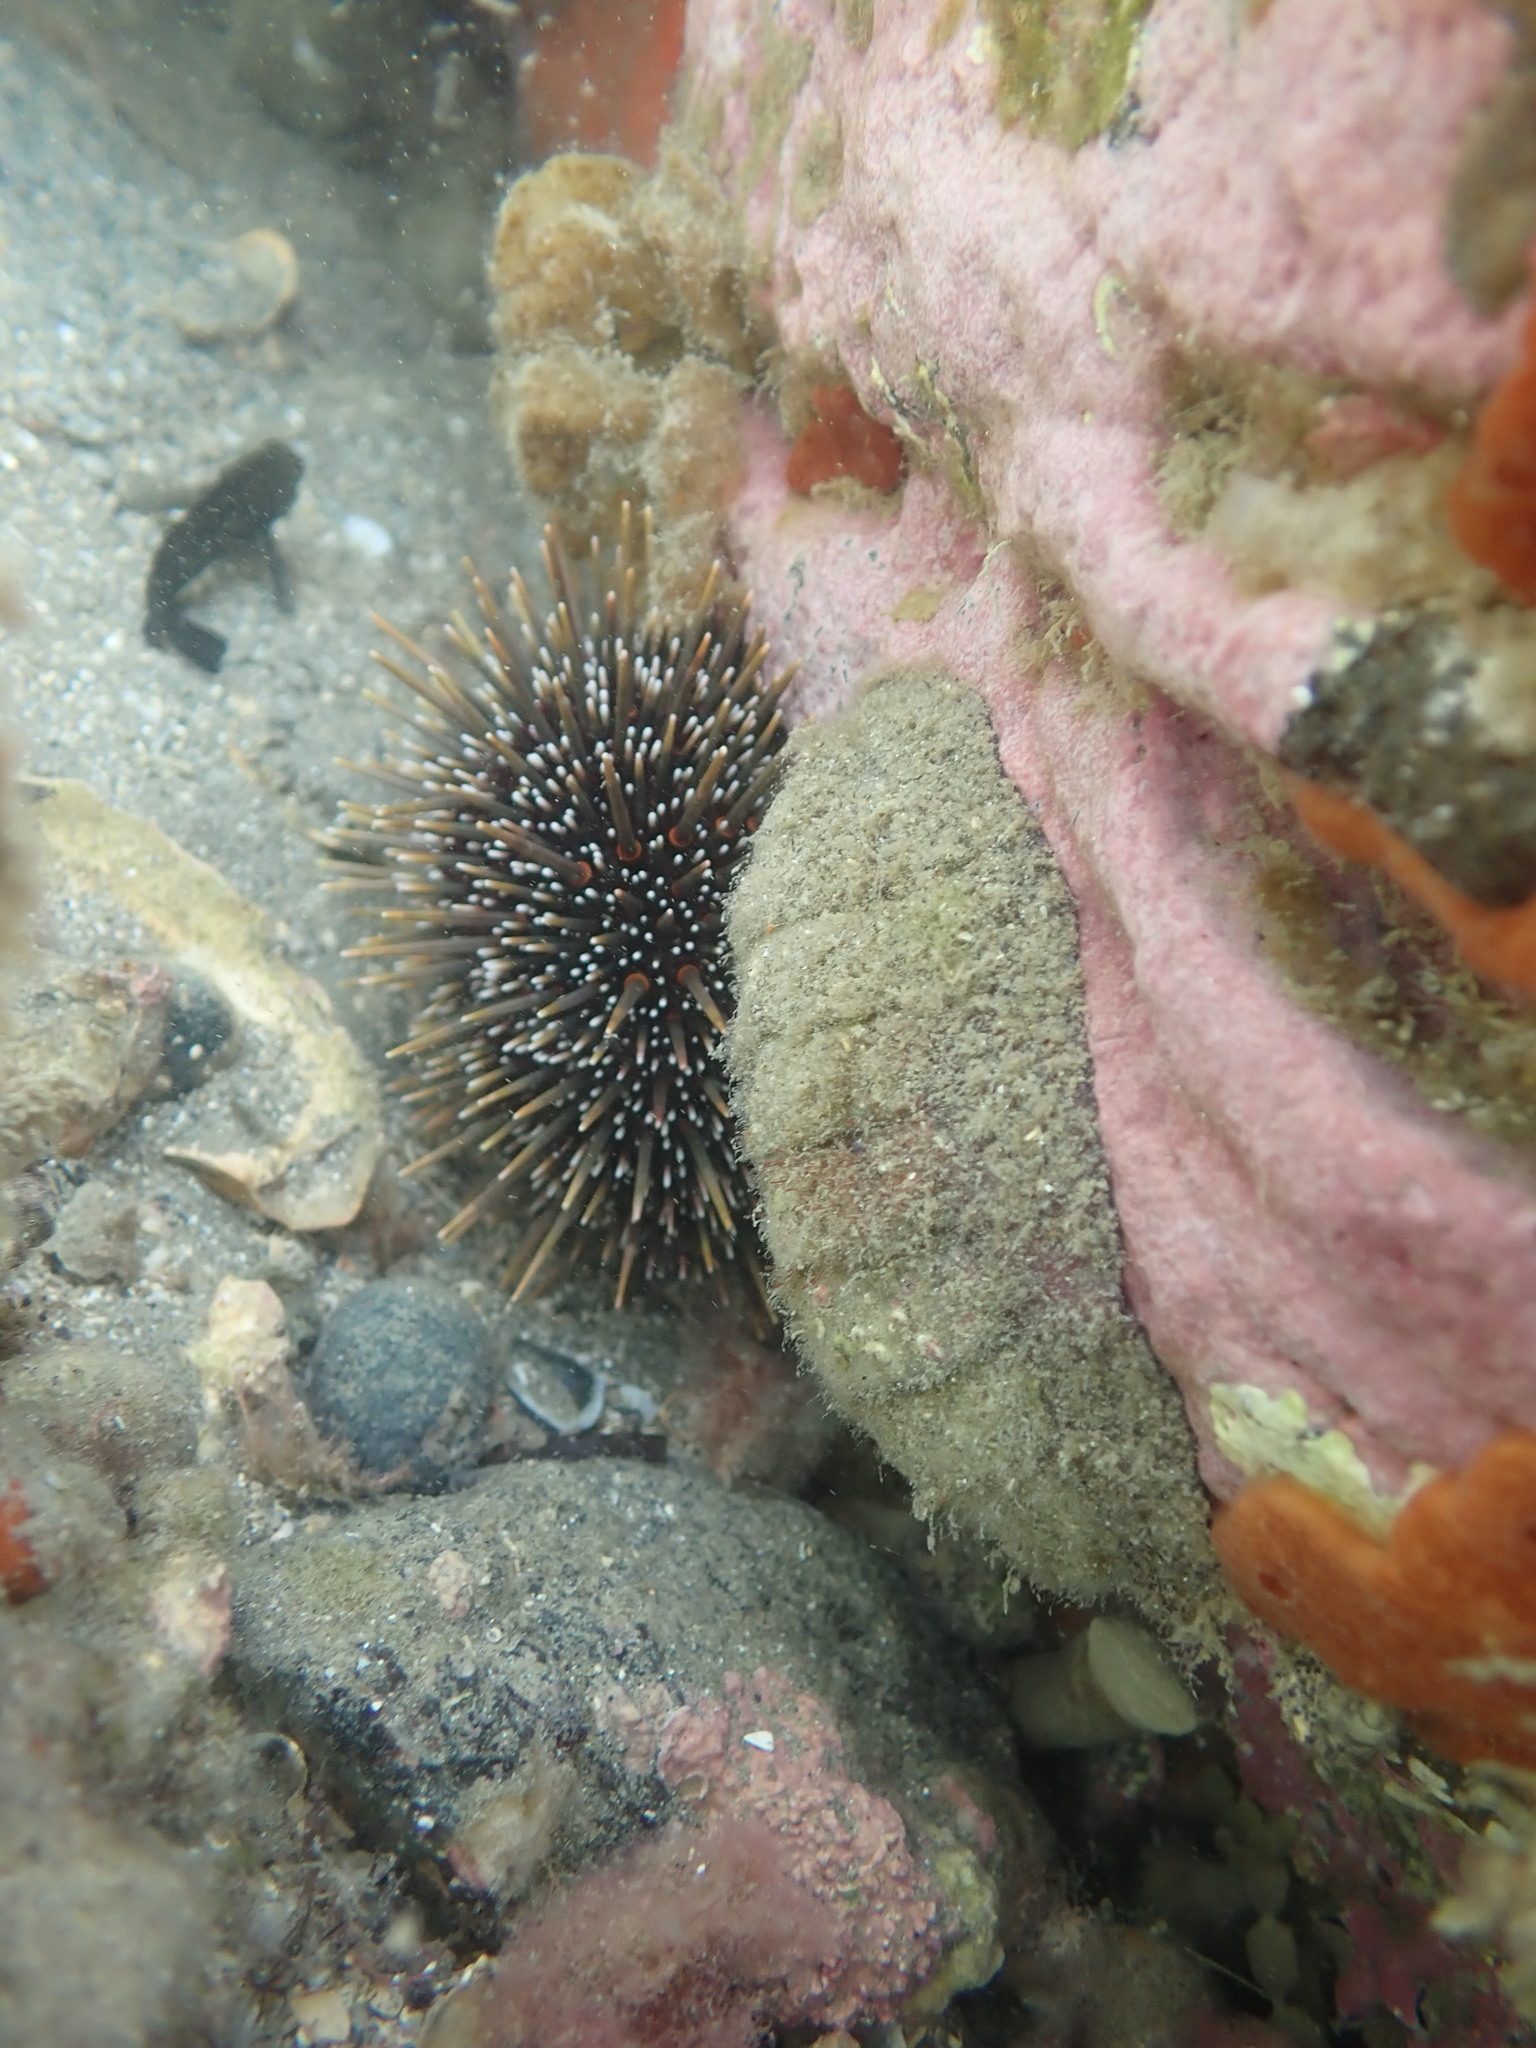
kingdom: Animalia
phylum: Mollusca
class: Polyplacophora
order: Callochitonida
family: Callochitonidae
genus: Eudoxochiton
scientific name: Eudoxochiton nobilis
